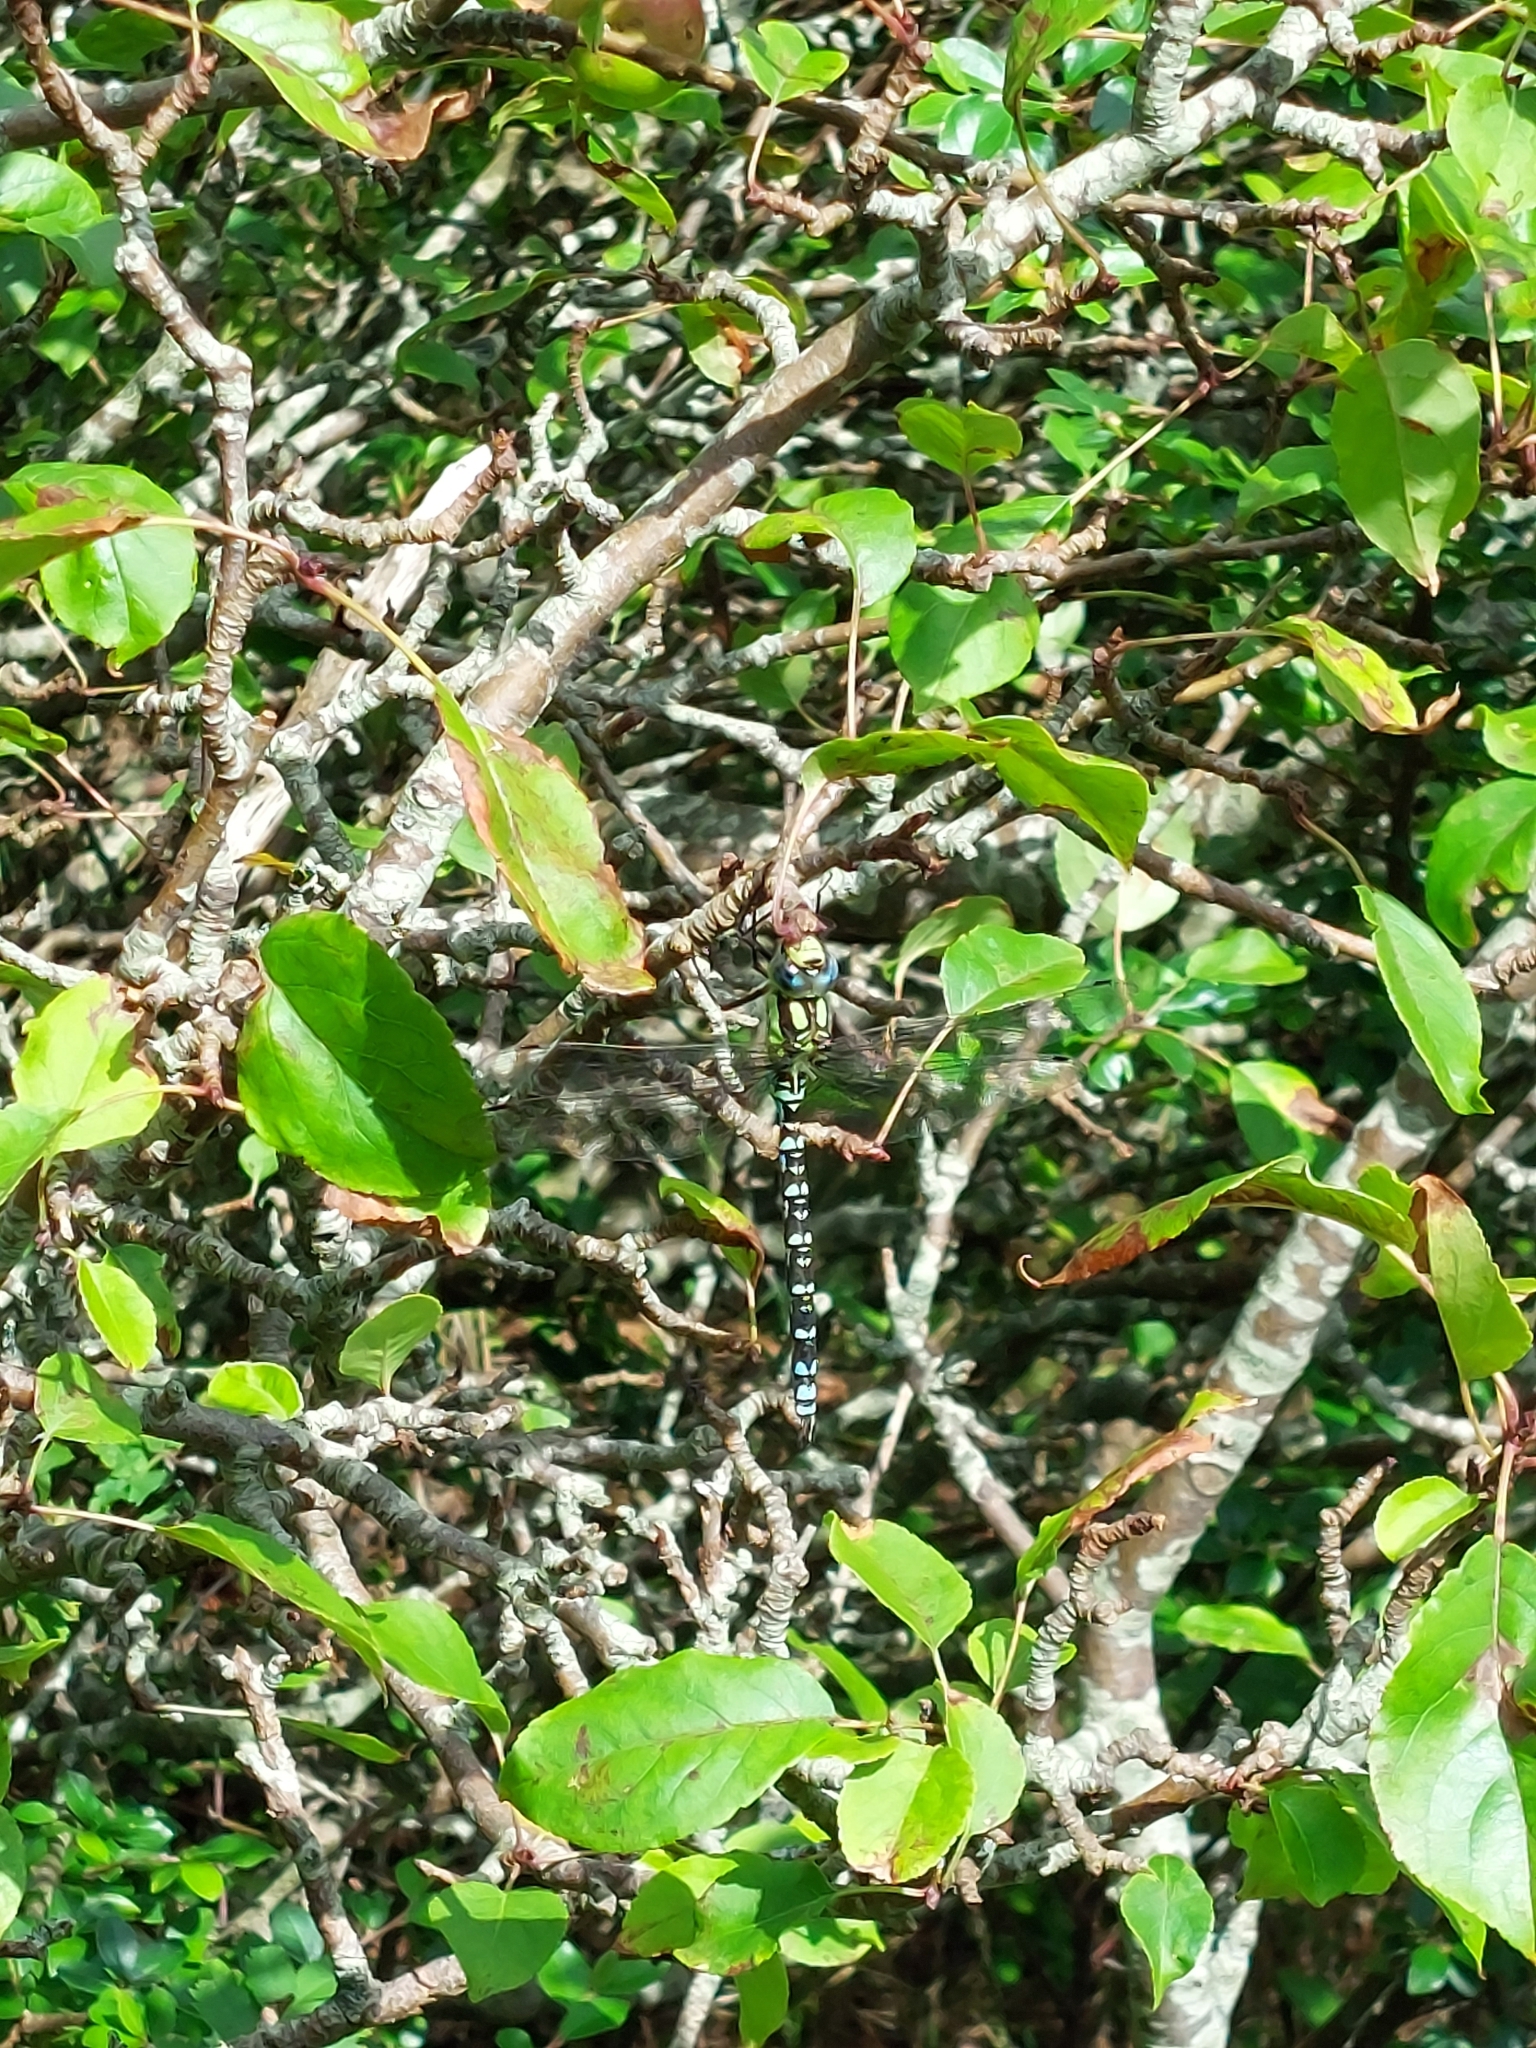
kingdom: Animalia
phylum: Arthropoda
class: Insecta
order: Odonata
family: Aeshnidae
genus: Aeshna
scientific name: Aeshna cyanea
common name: Southern hawker
